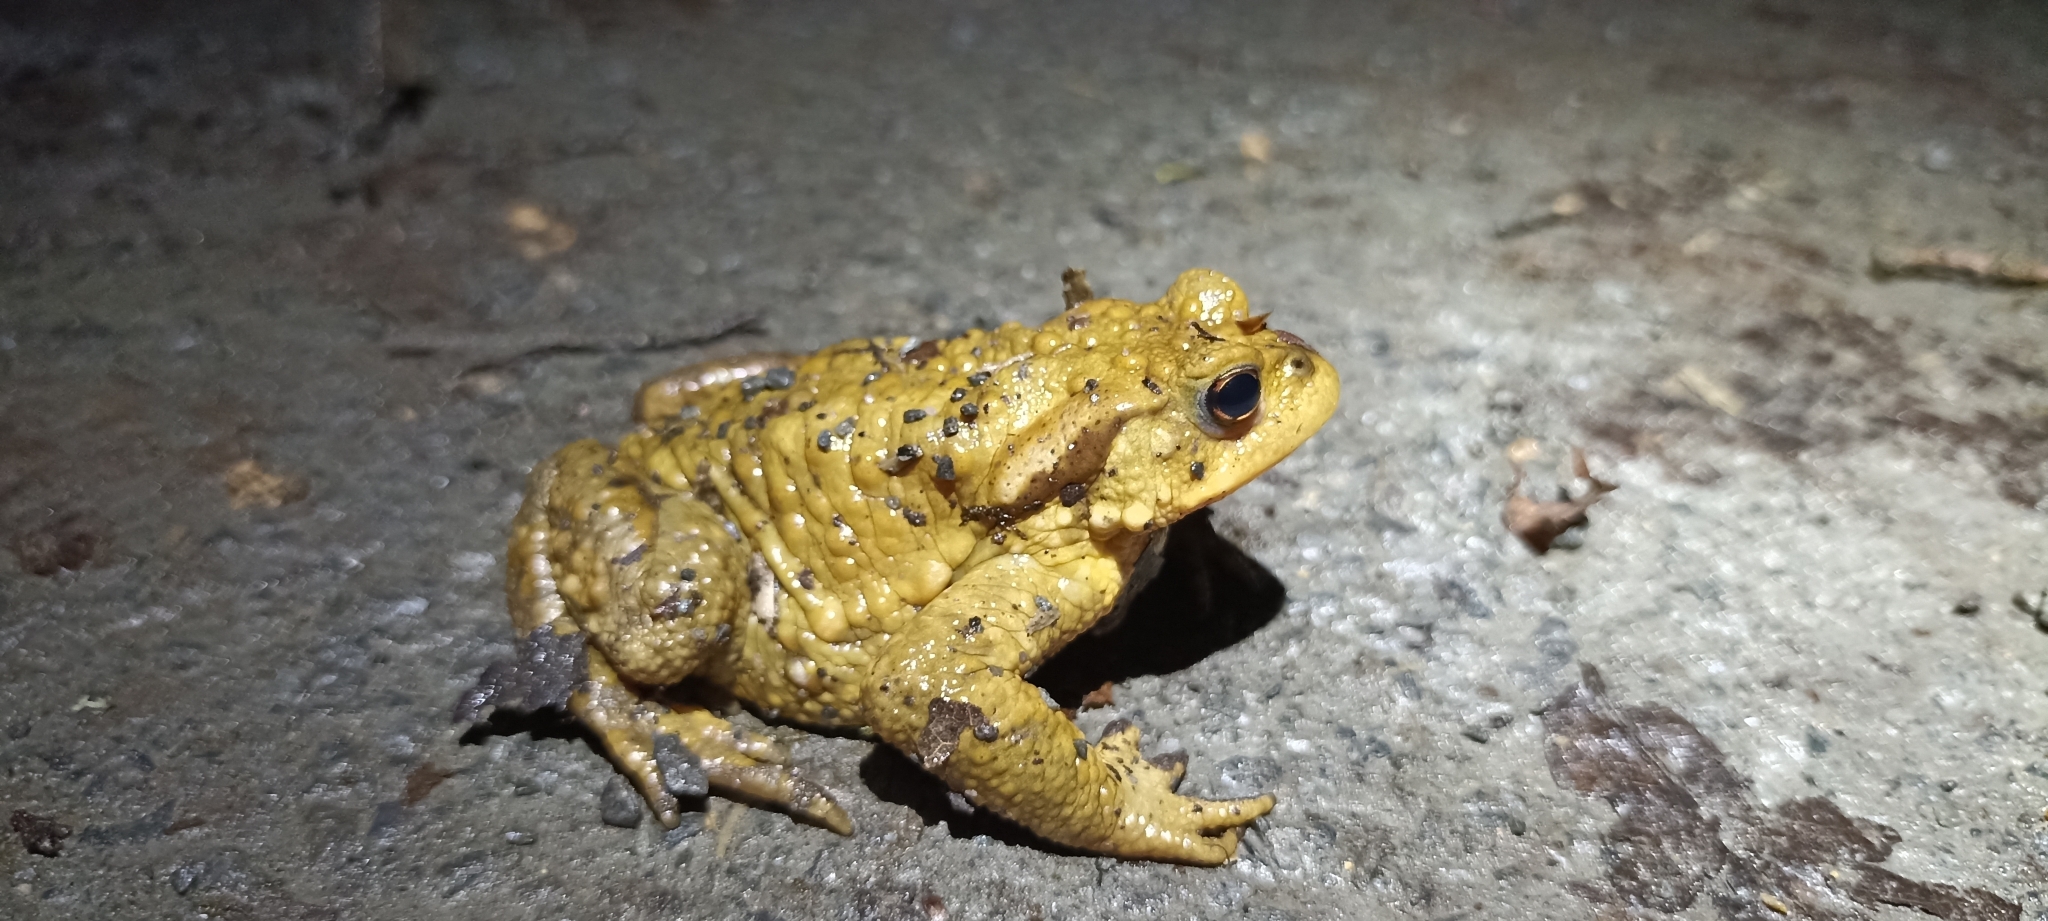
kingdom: Animalia
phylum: Chordata
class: Amphibia
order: Anura
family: Bufonidae
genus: Bufo
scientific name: Bufo spinosus
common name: Western common toad
